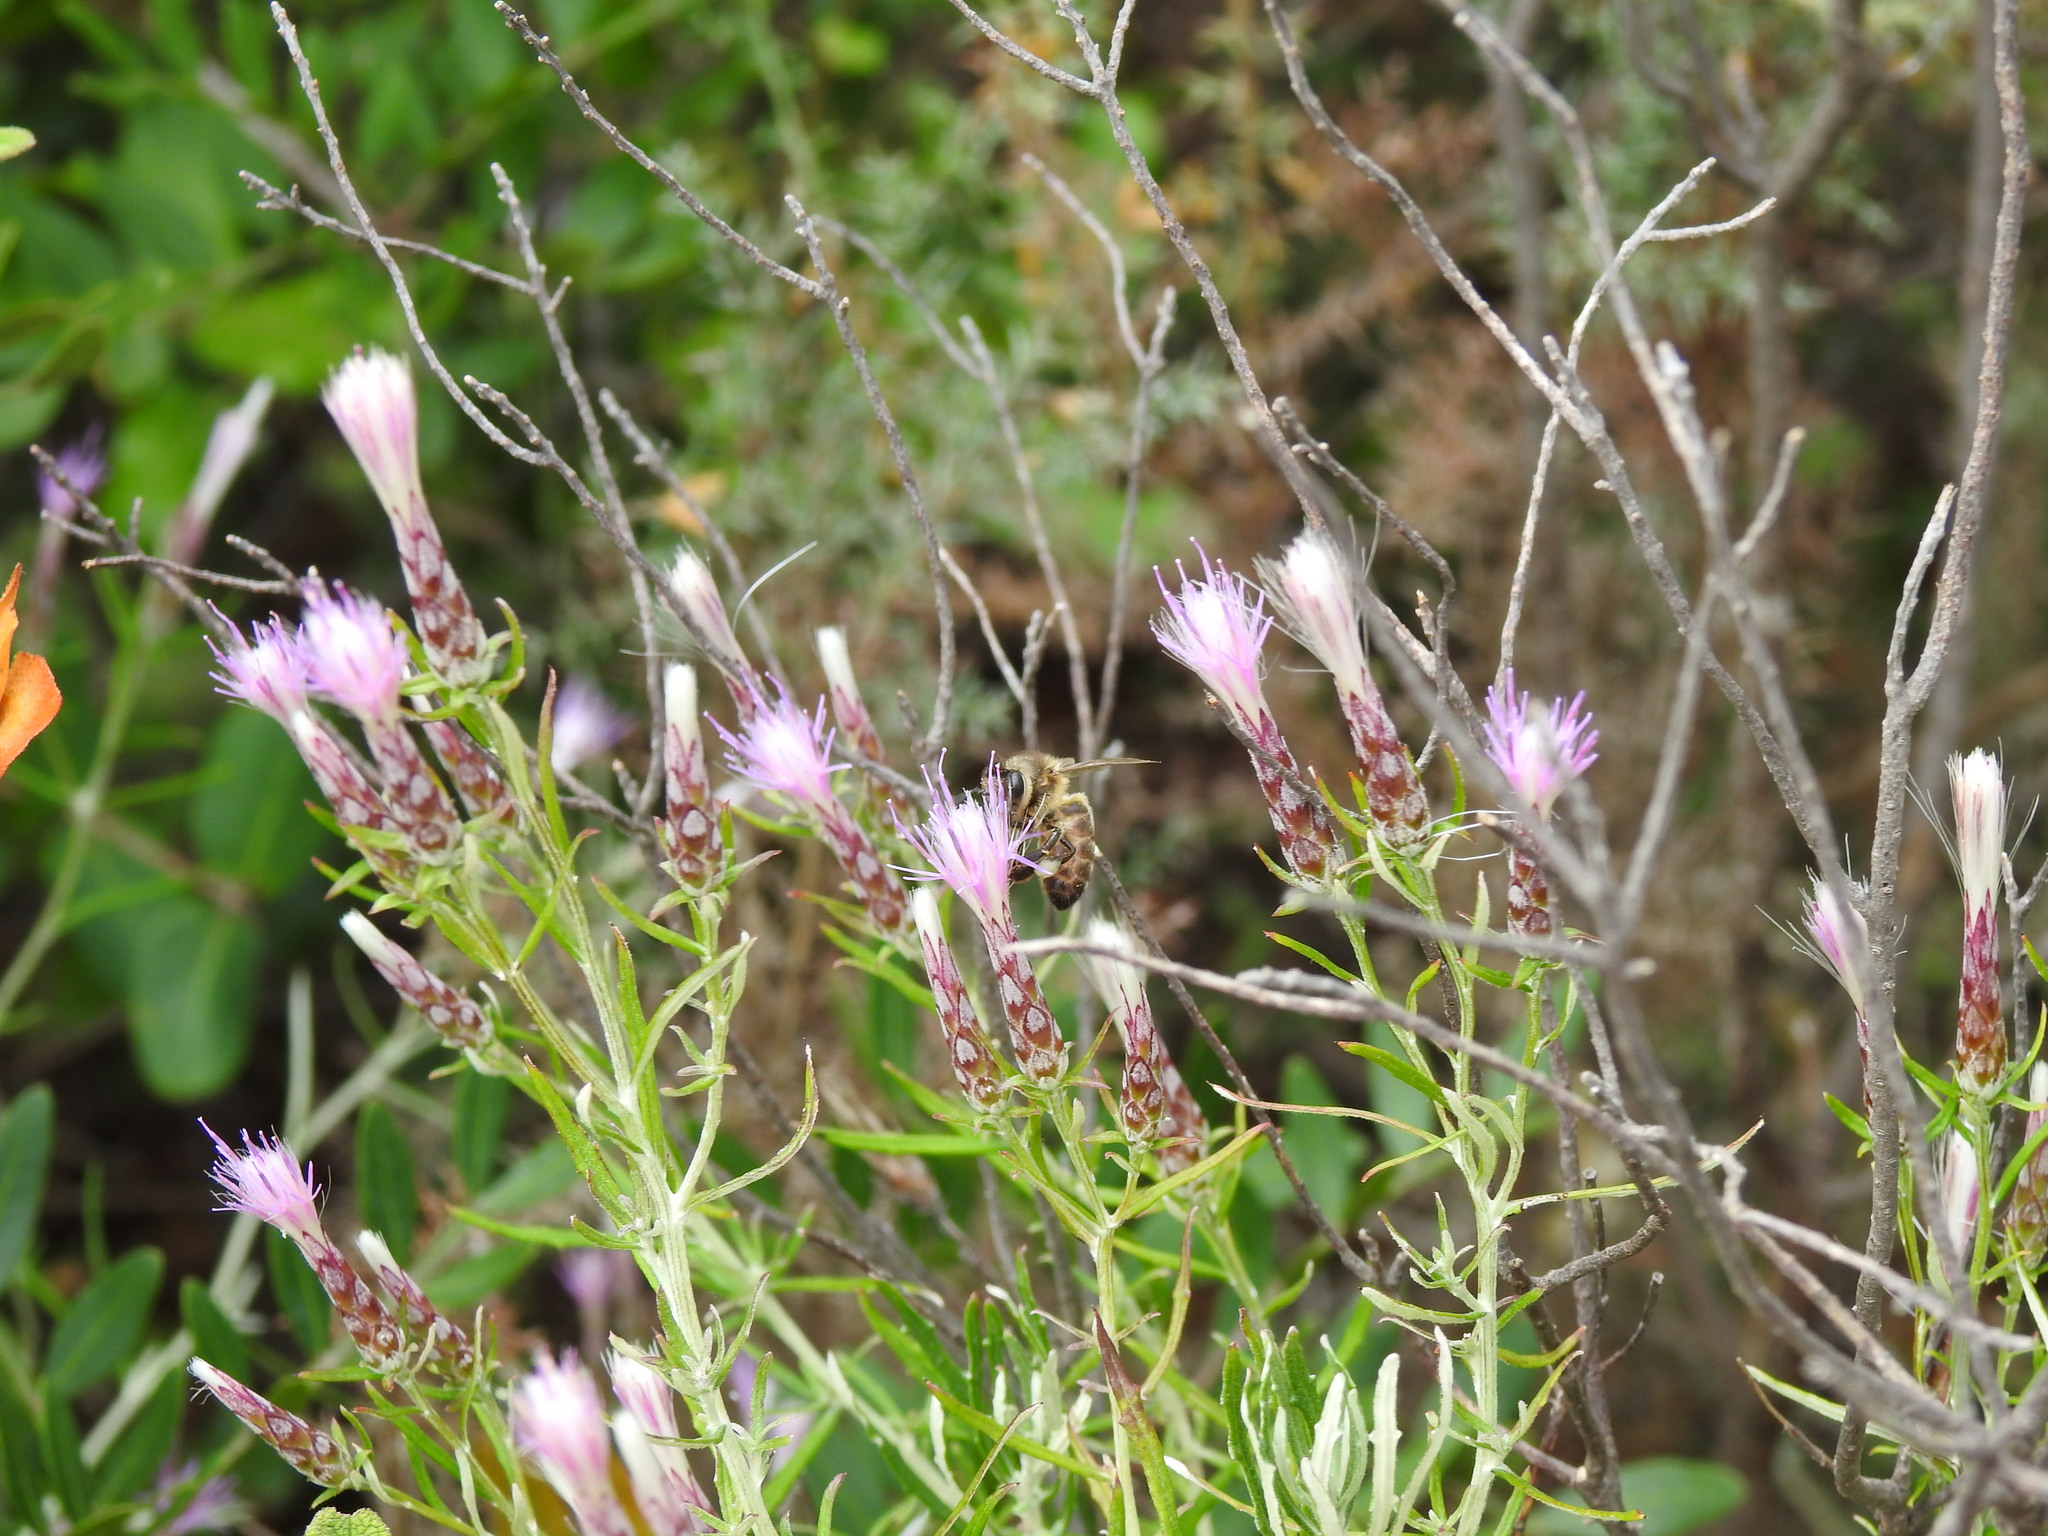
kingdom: Plantae
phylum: Tracheophyta
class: Magnoliopsida
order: Asterales
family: Asteraceae
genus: Staehelina
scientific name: Staehelina dubia
